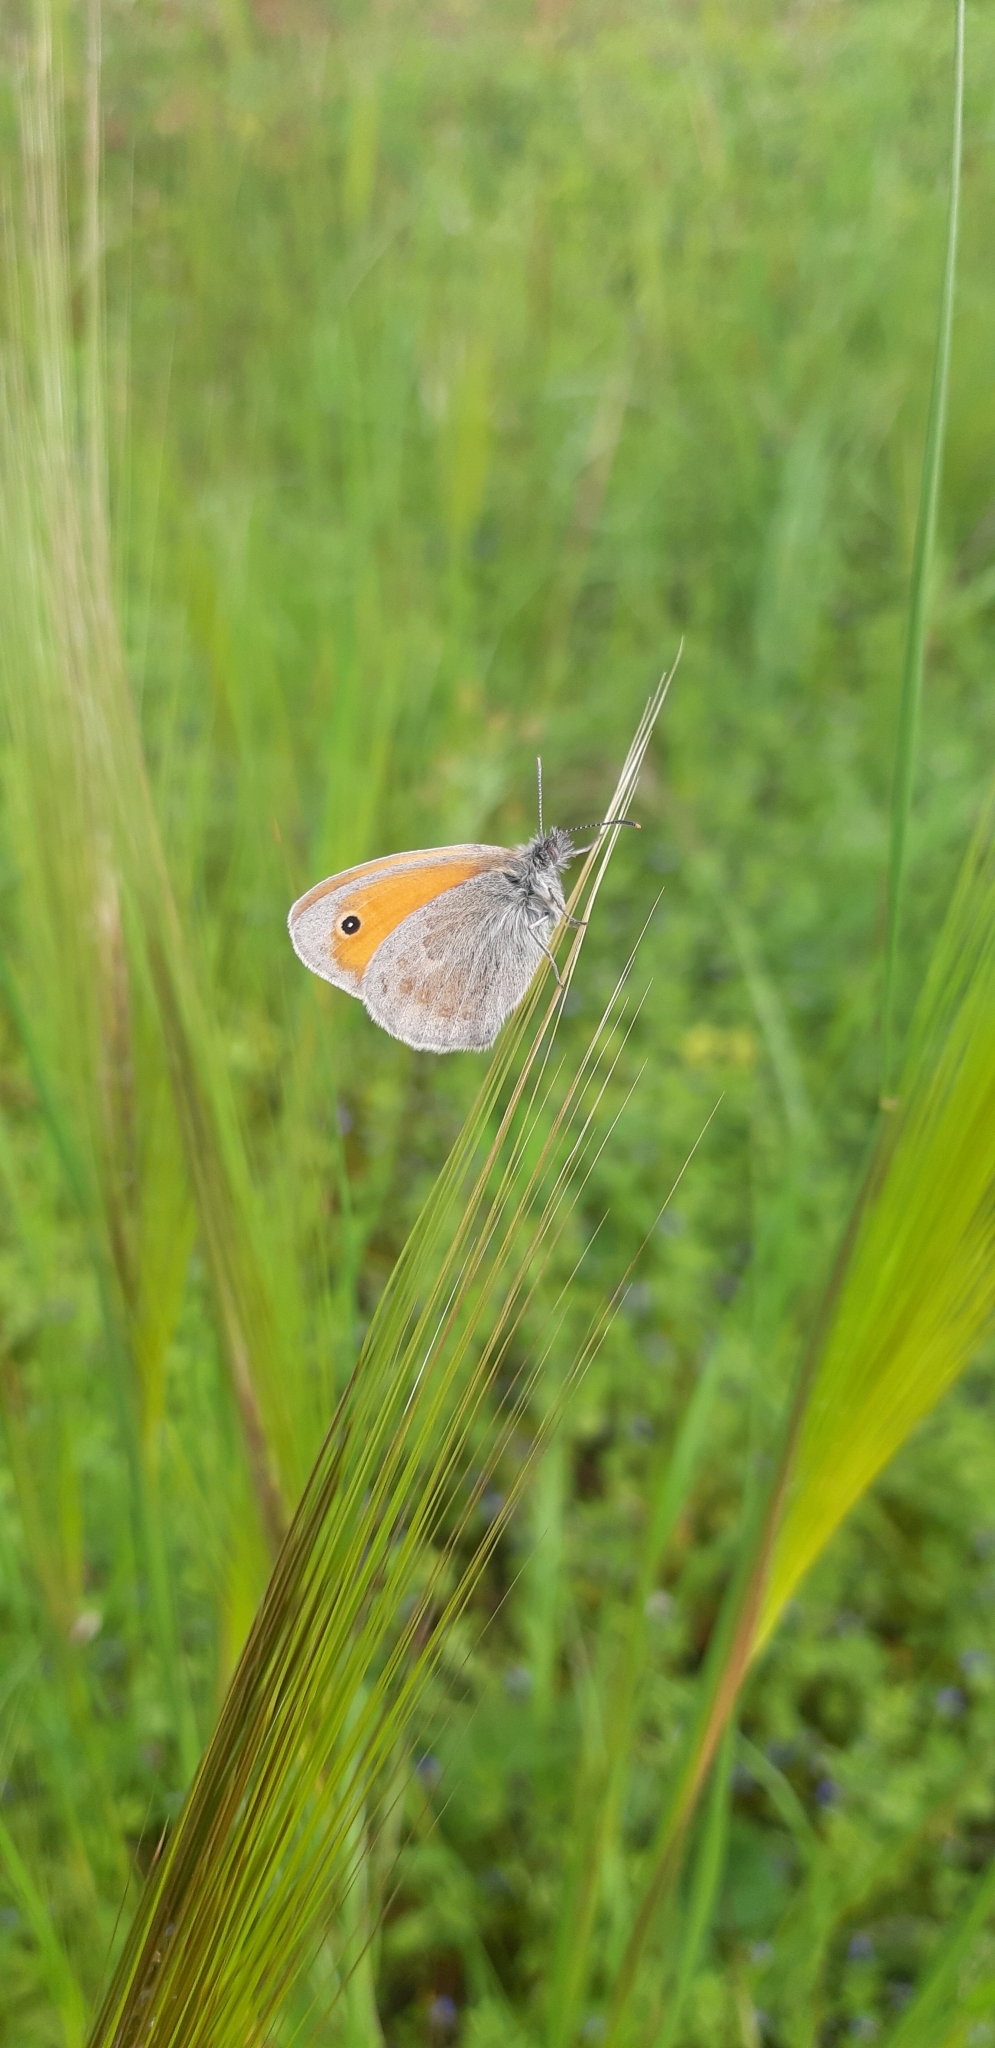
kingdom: Animalia
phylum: Arthropoda
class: Insecta
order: Lepidoptera
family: Nymphalidae
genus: Coenonympha
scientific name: Coenonympha pamphilus
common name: Small heath
